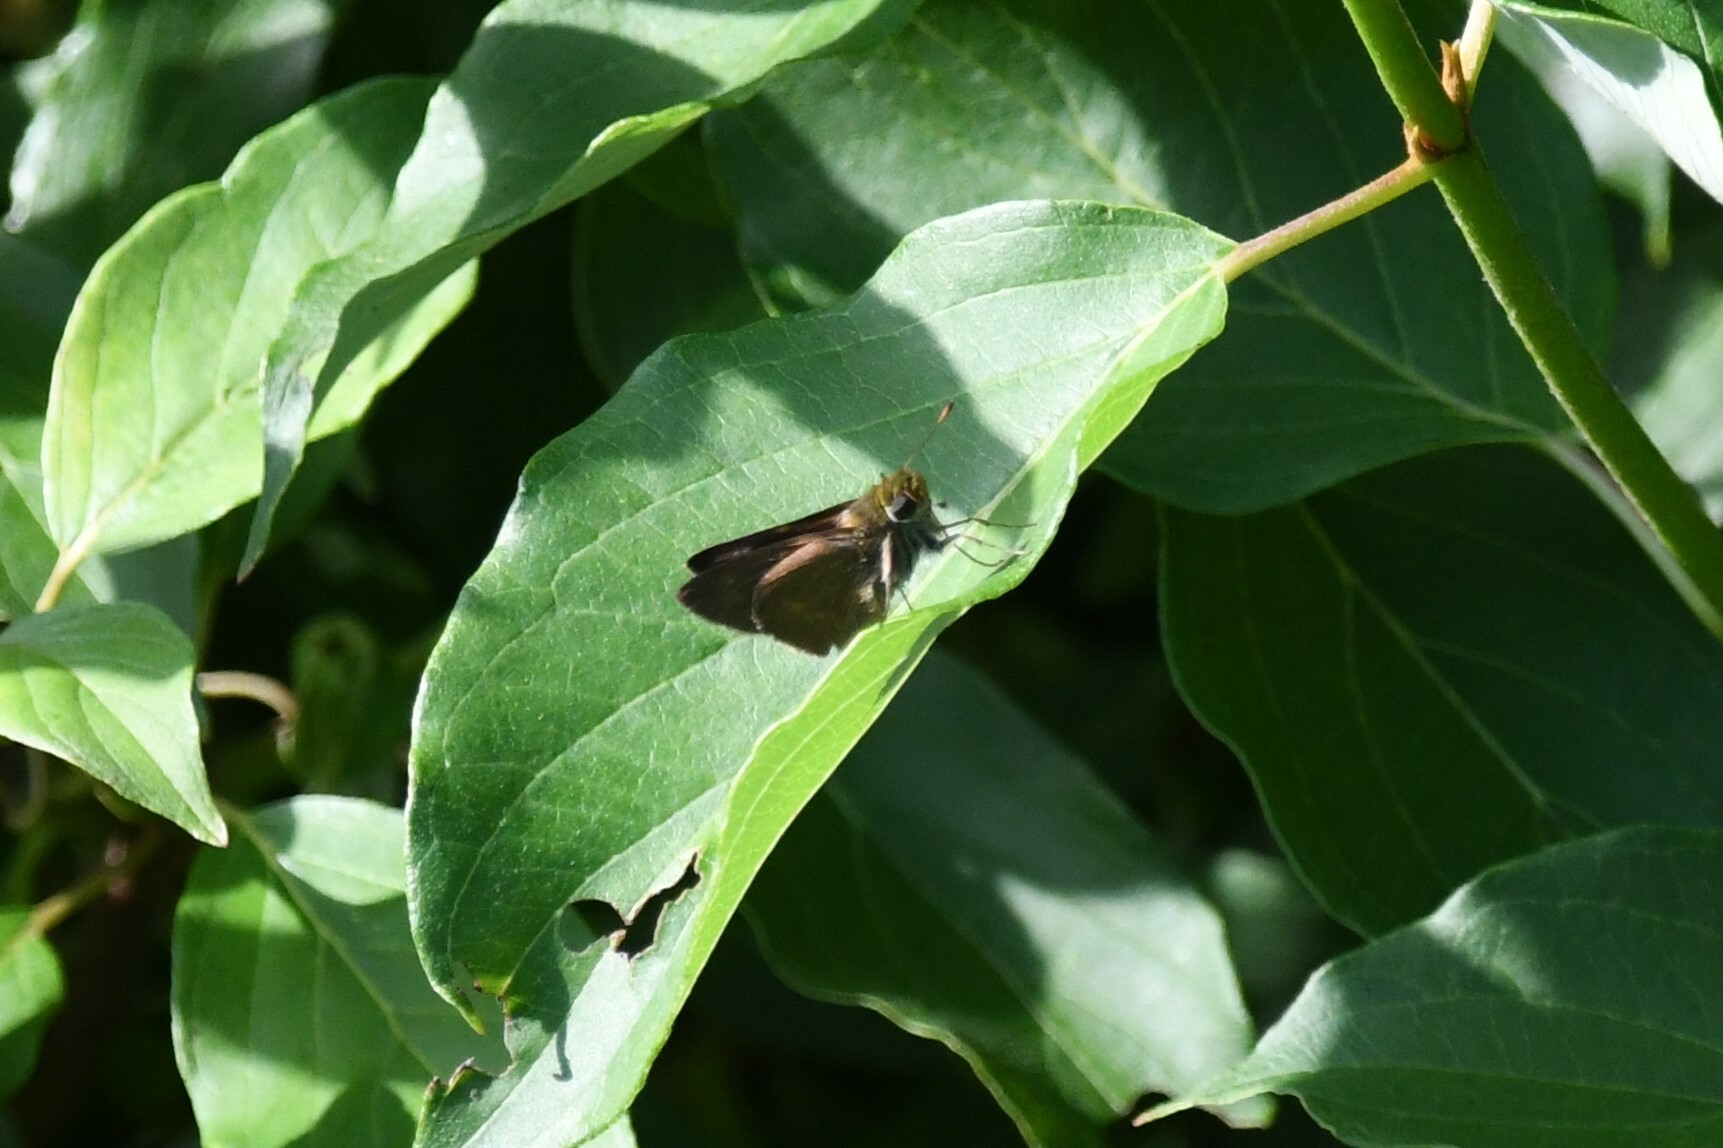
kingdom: Animalia
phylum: Arthropoda
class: Insecta
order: Lepidoptera
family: Hesperiidae
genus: Euphyes
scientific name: Euphyes vestris
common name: Dun skipper
